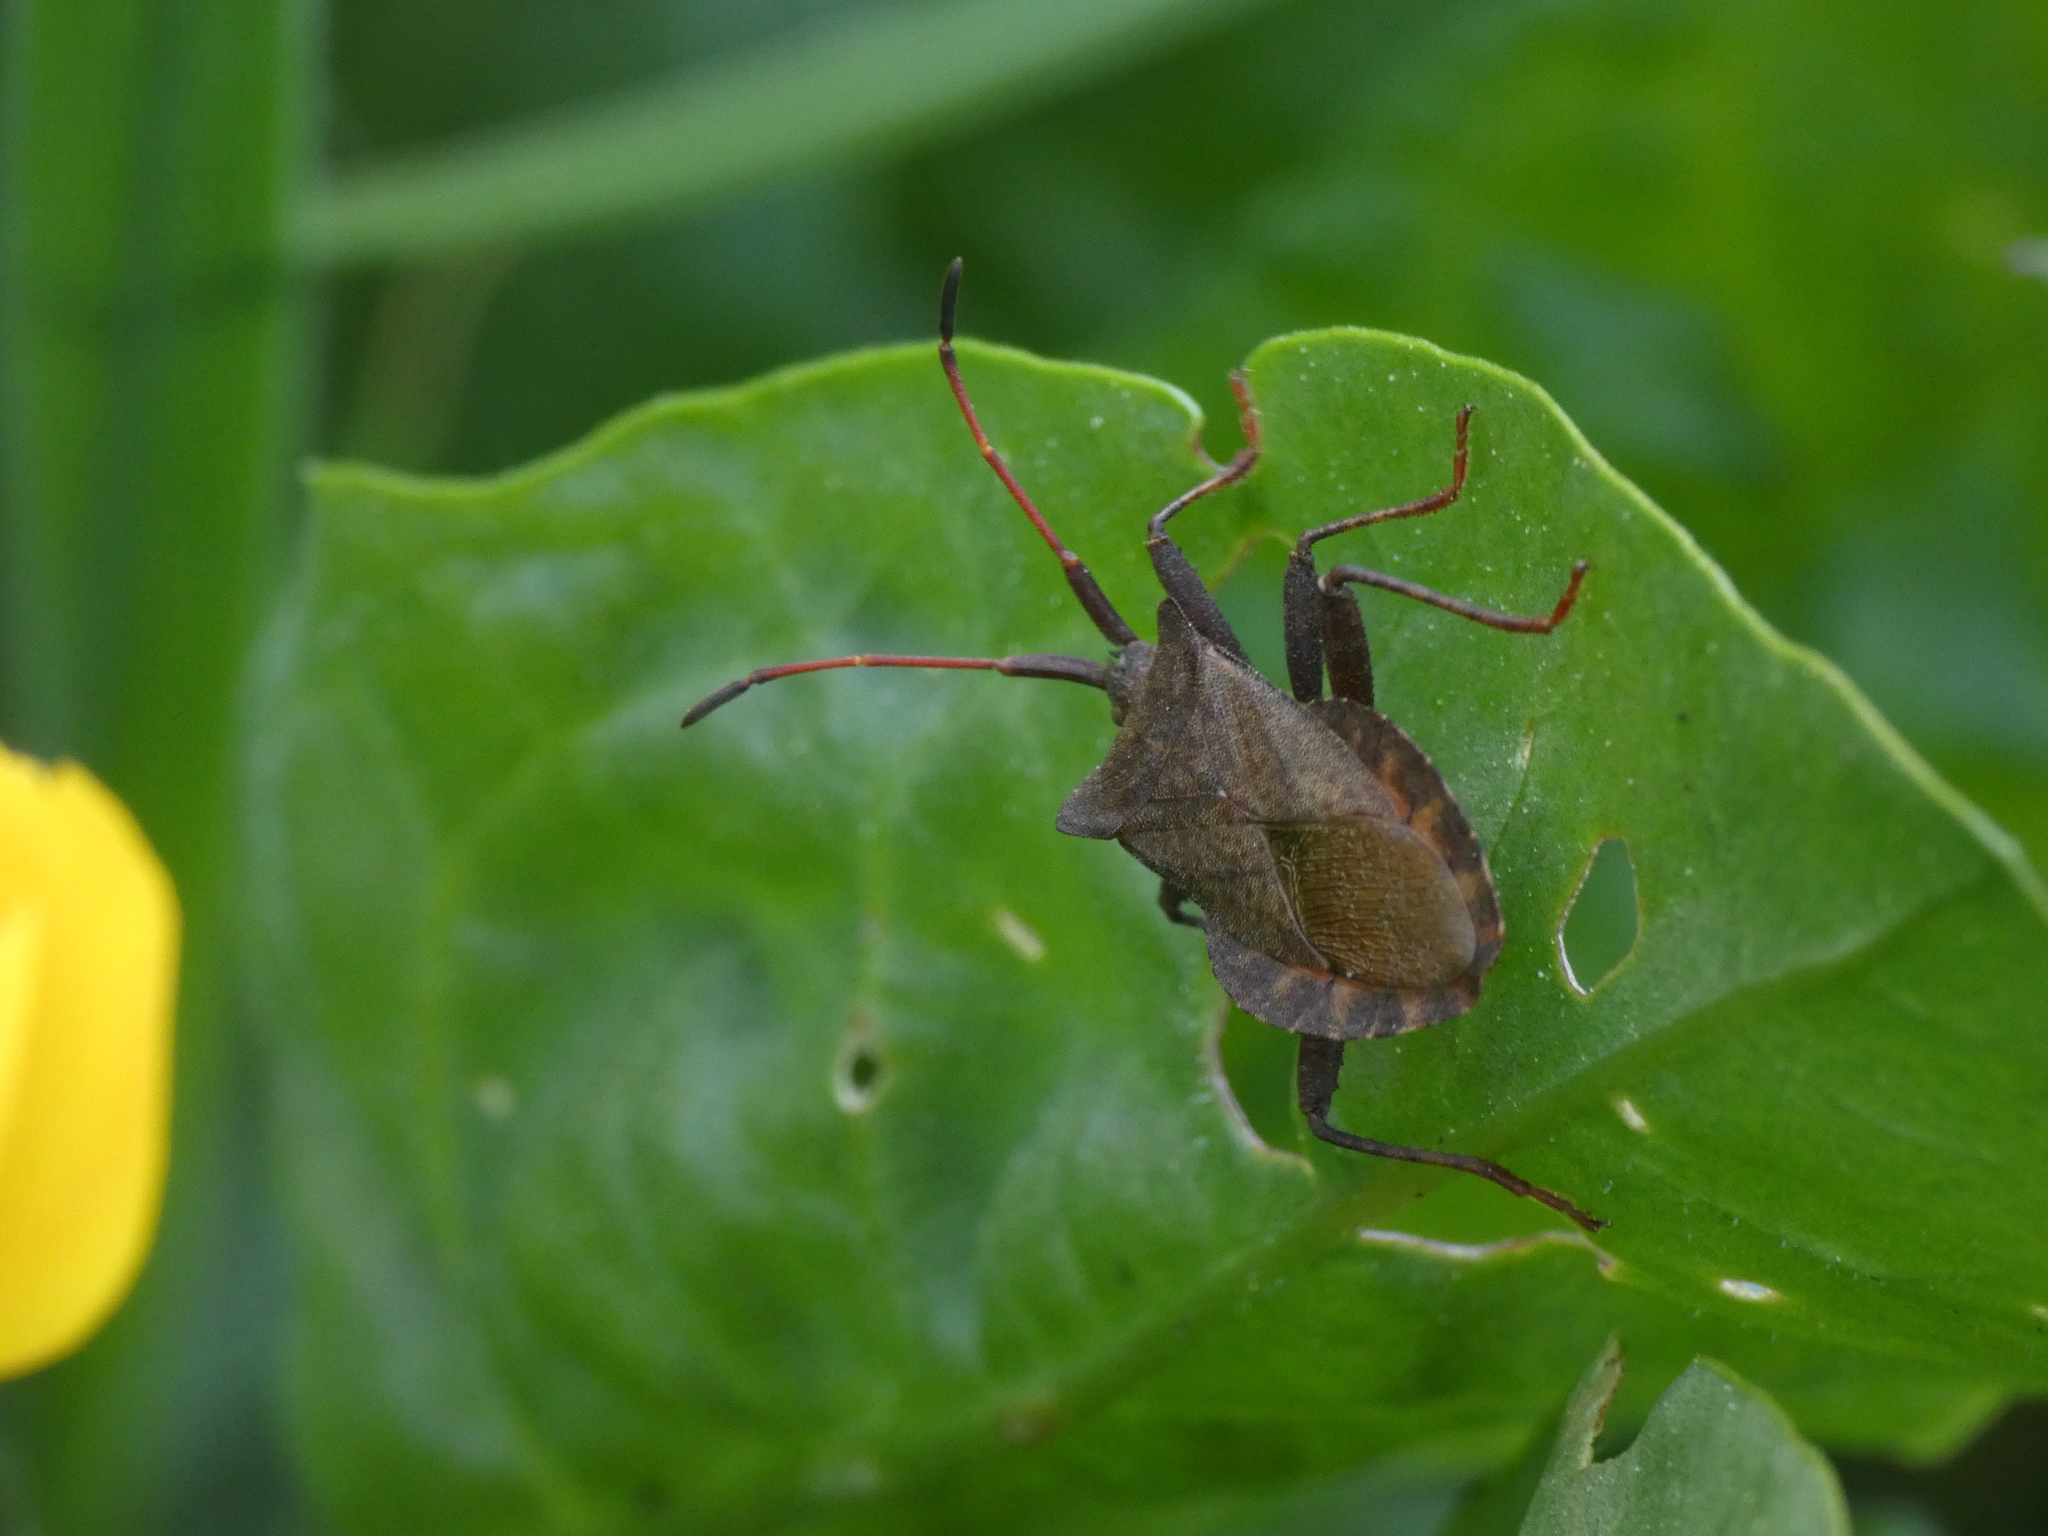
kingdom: Animalia
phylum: Arthropoda
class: Insecta
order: Hemiptera
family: Coreidae
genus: Coreus
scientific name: Coreus marginatus
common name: Dock bug
